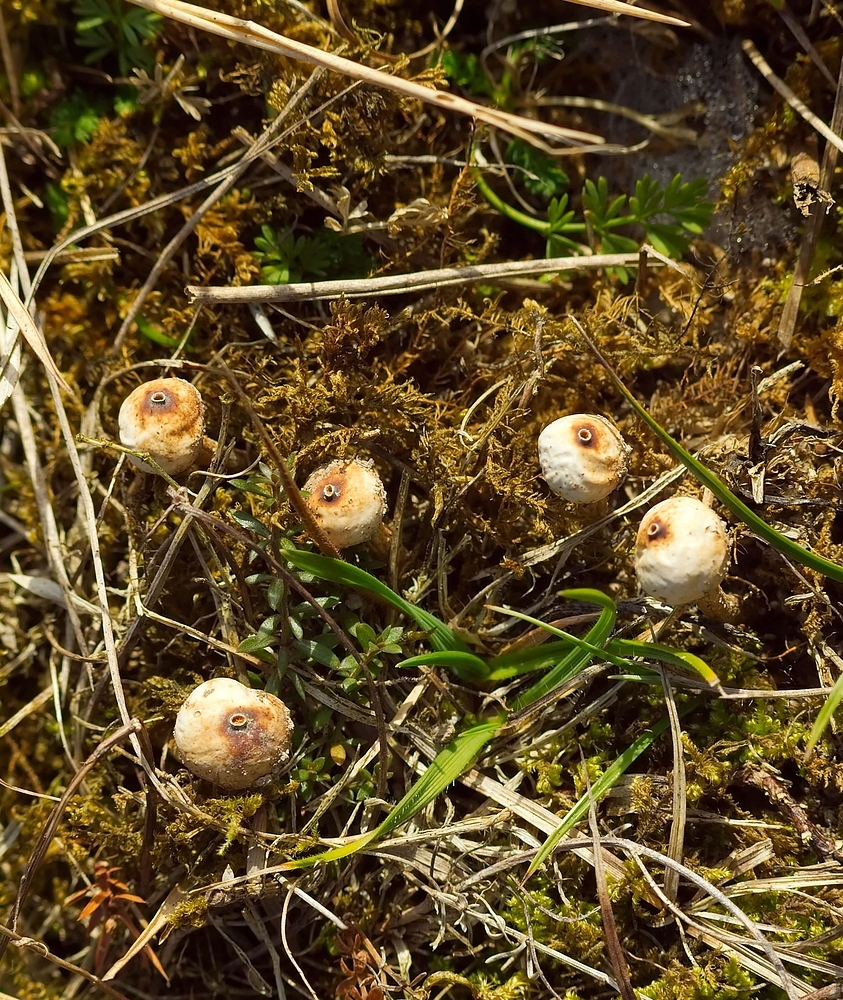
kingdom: Fungi
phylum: Basidiomycota
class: Agaricomycetes
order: Agaricales
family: Agaricaceae
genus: Tulostoma
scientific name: Tulostoma brumale
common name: Winter stalk puffball
